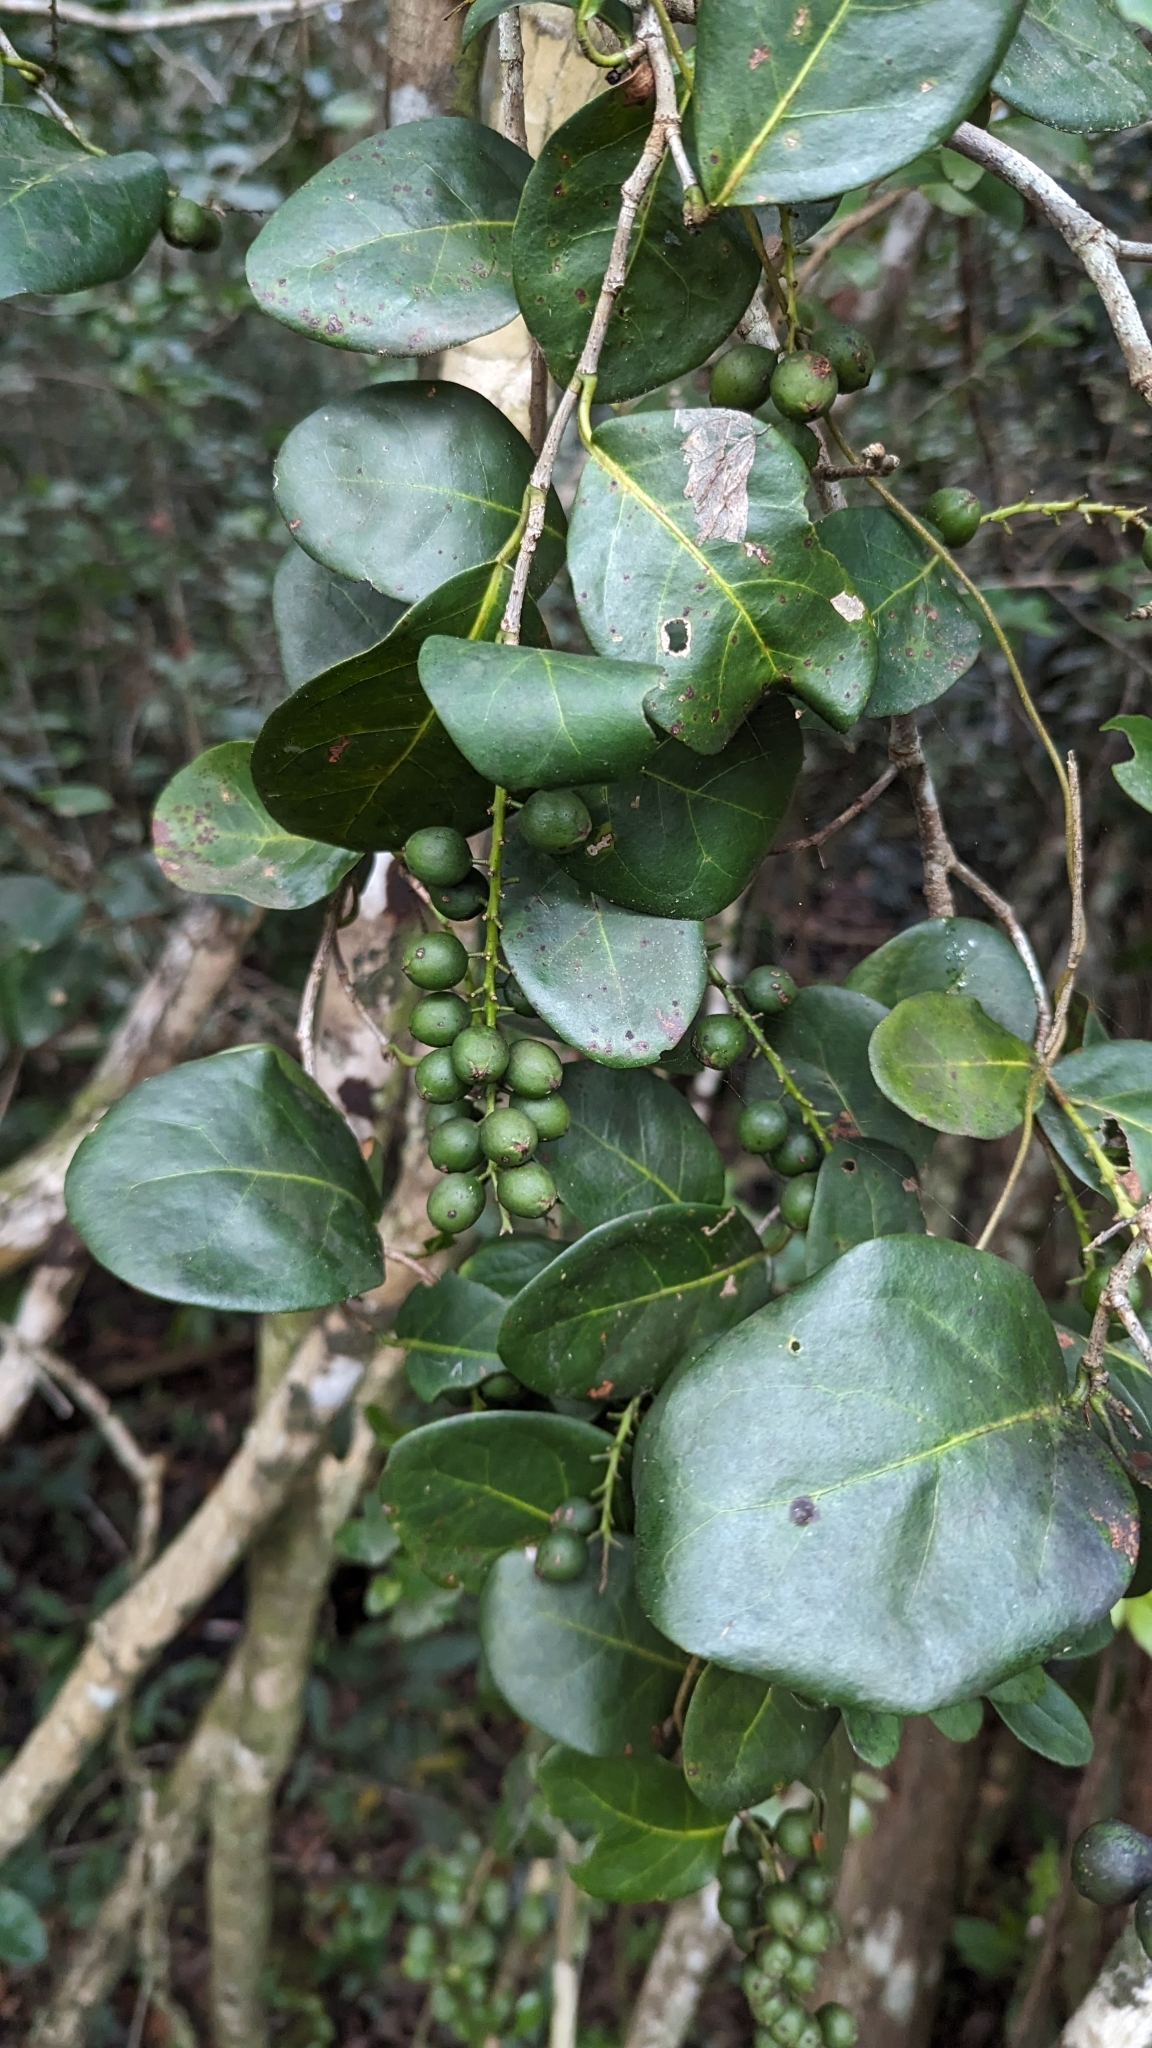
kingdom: Plantae
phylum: Tracheophyta
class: Magnoliopsida
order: Caryophyllales
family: Polygonaceae
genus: Coccoloba
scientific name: Coccoloba diversifolia
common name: Pigeon-plum
